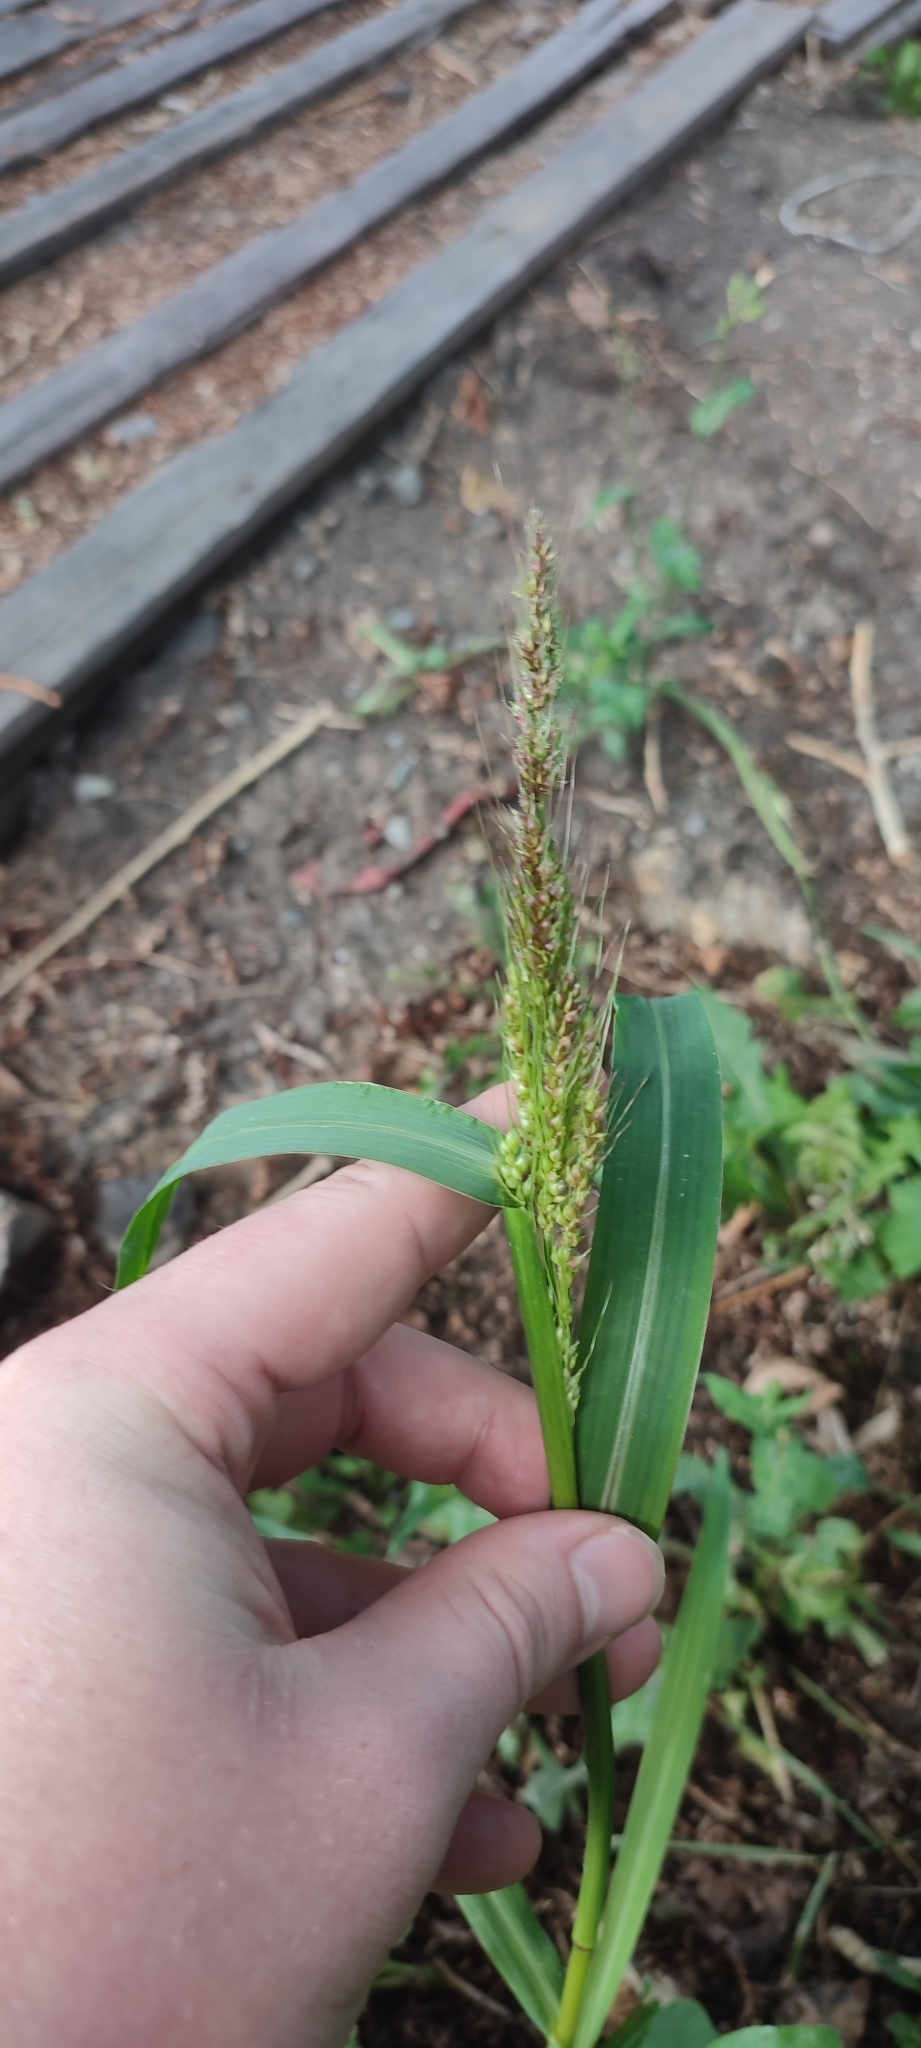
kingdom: Plantae
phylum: Tracheophyta
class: Liliopsida
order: Poales
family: Poaceae
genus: Echinochloa
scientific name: Echinochloa crus-galli
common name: Cockspur
